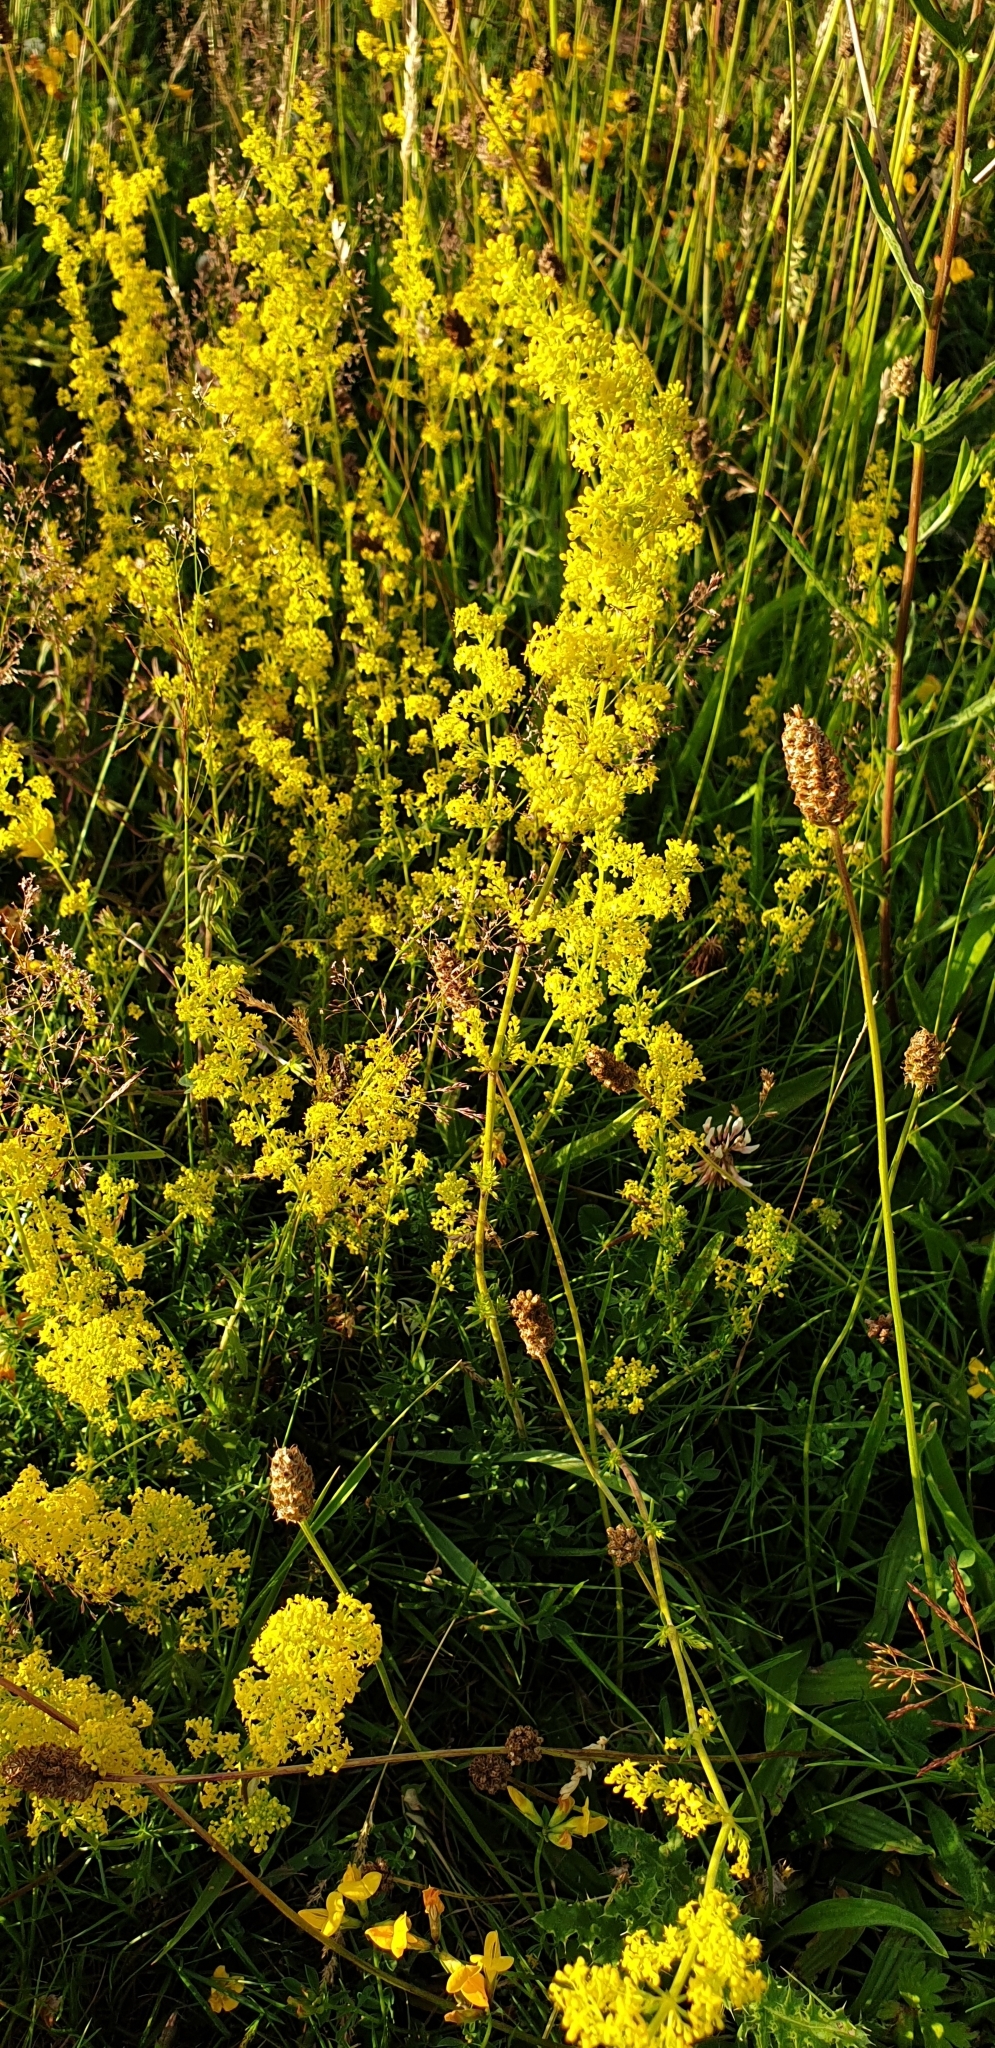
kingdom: Plantae
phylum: Tracheophyta
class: Magnoliopsida
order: Gentianales
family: Rubiaceae
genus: Galium
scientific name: Galium verum
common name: Lady's bedstraw
